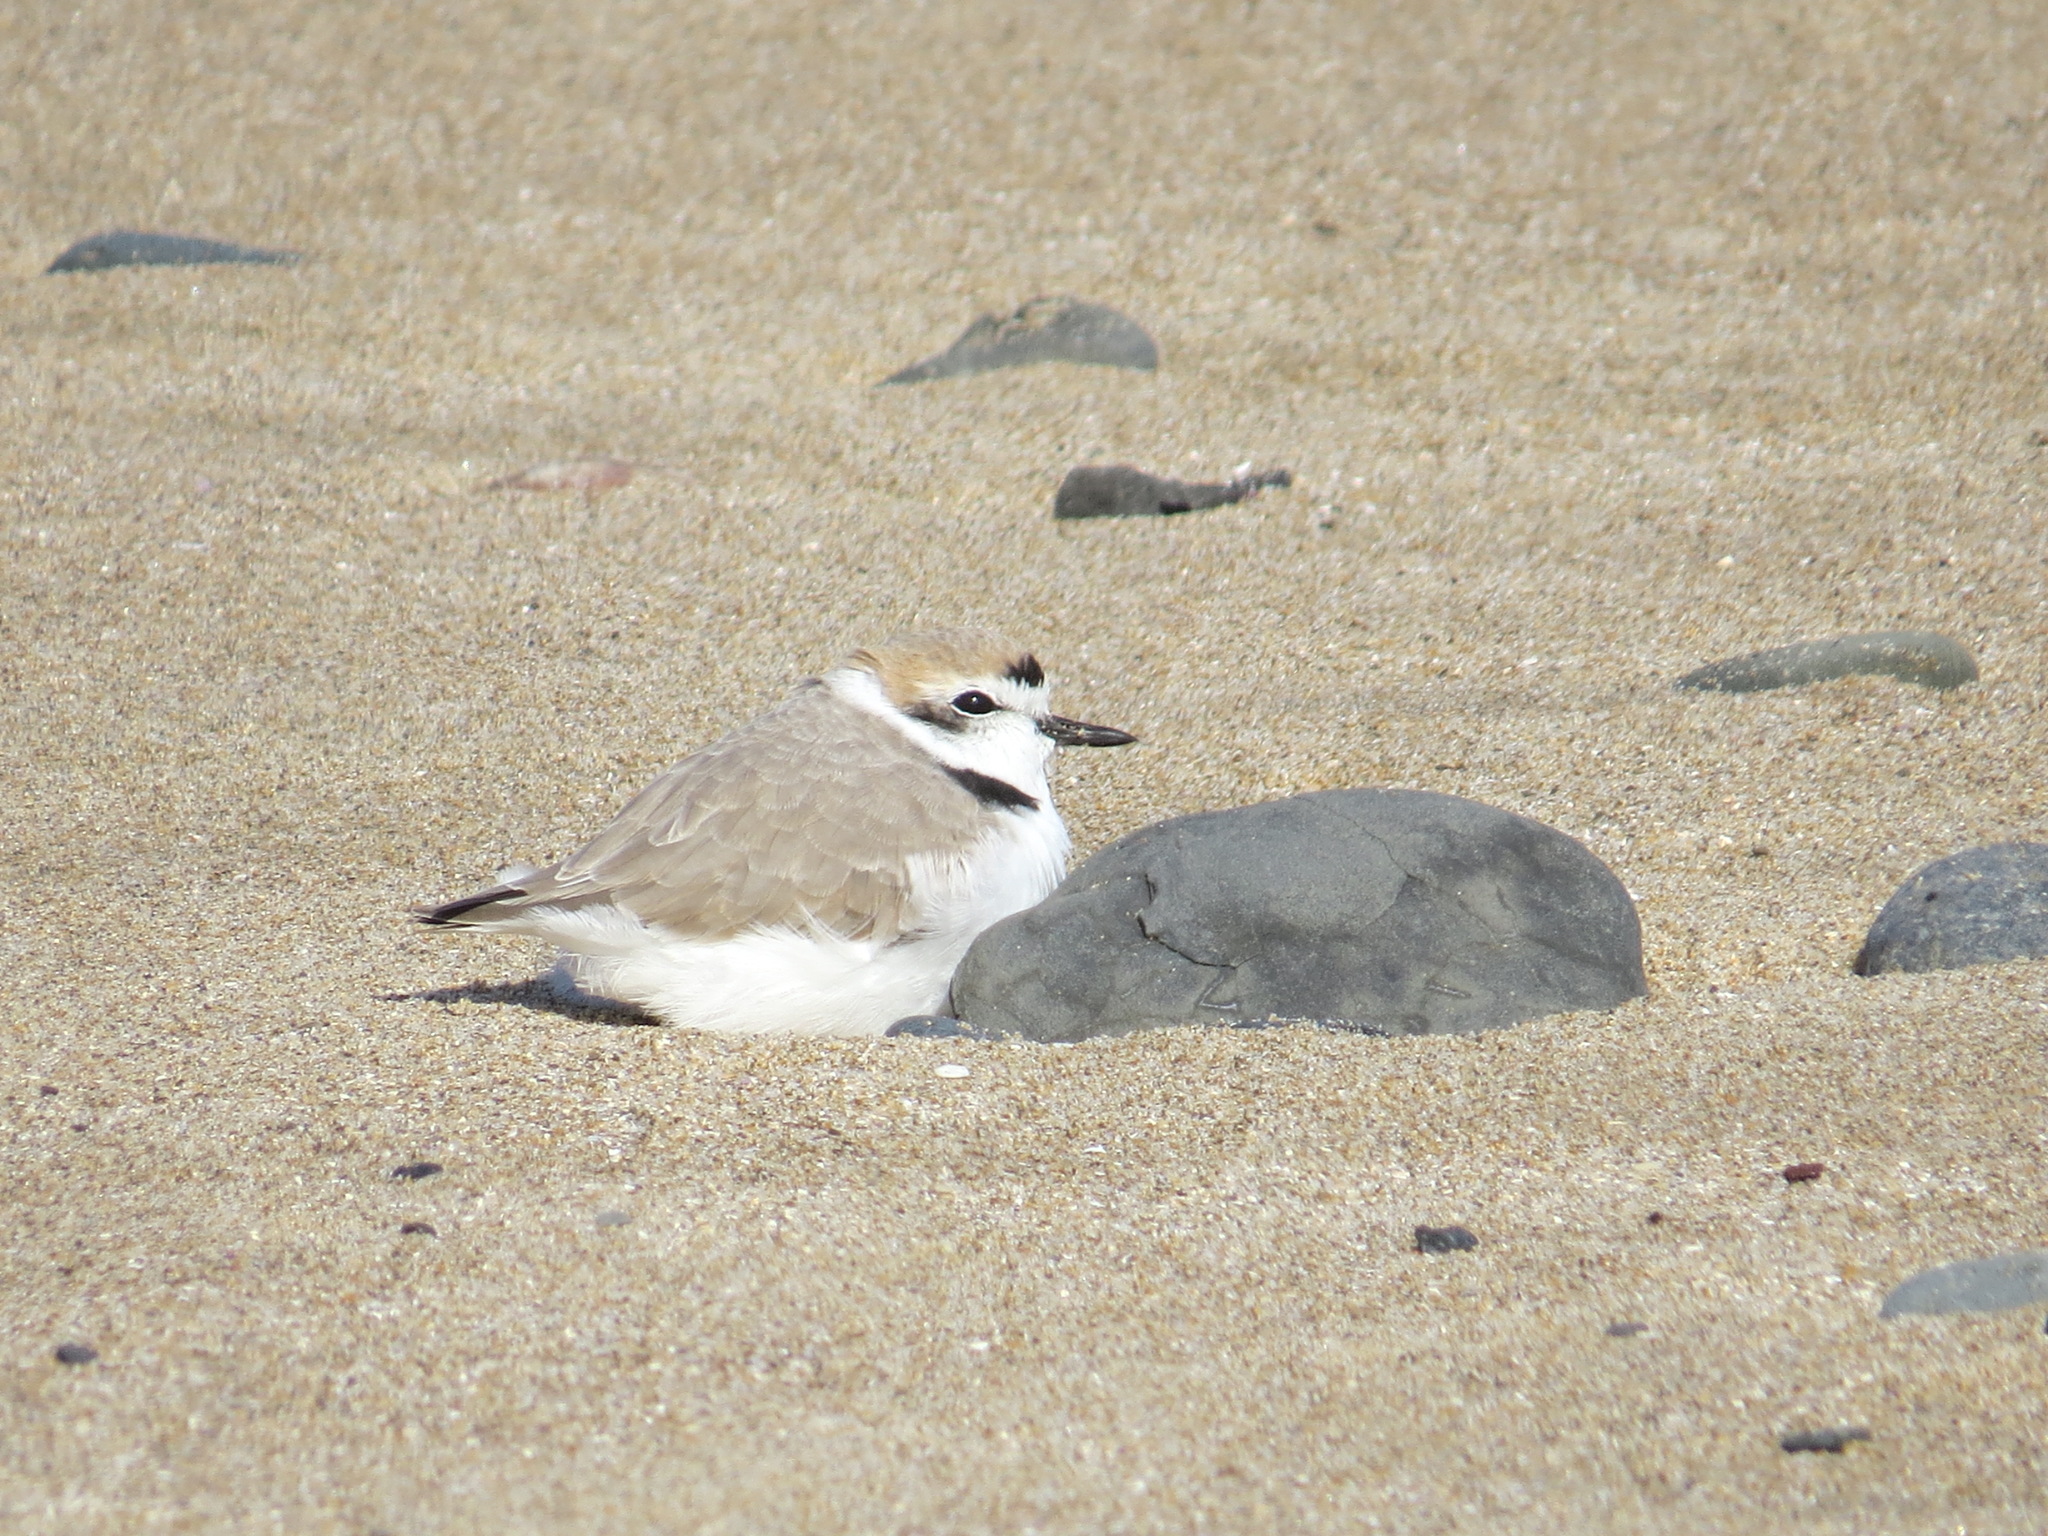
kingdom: Animalia
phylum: Chordata
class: Aves
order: Charadriiformes
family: Charadriidae
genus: Anarhynchus
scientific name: Anarhynchus
